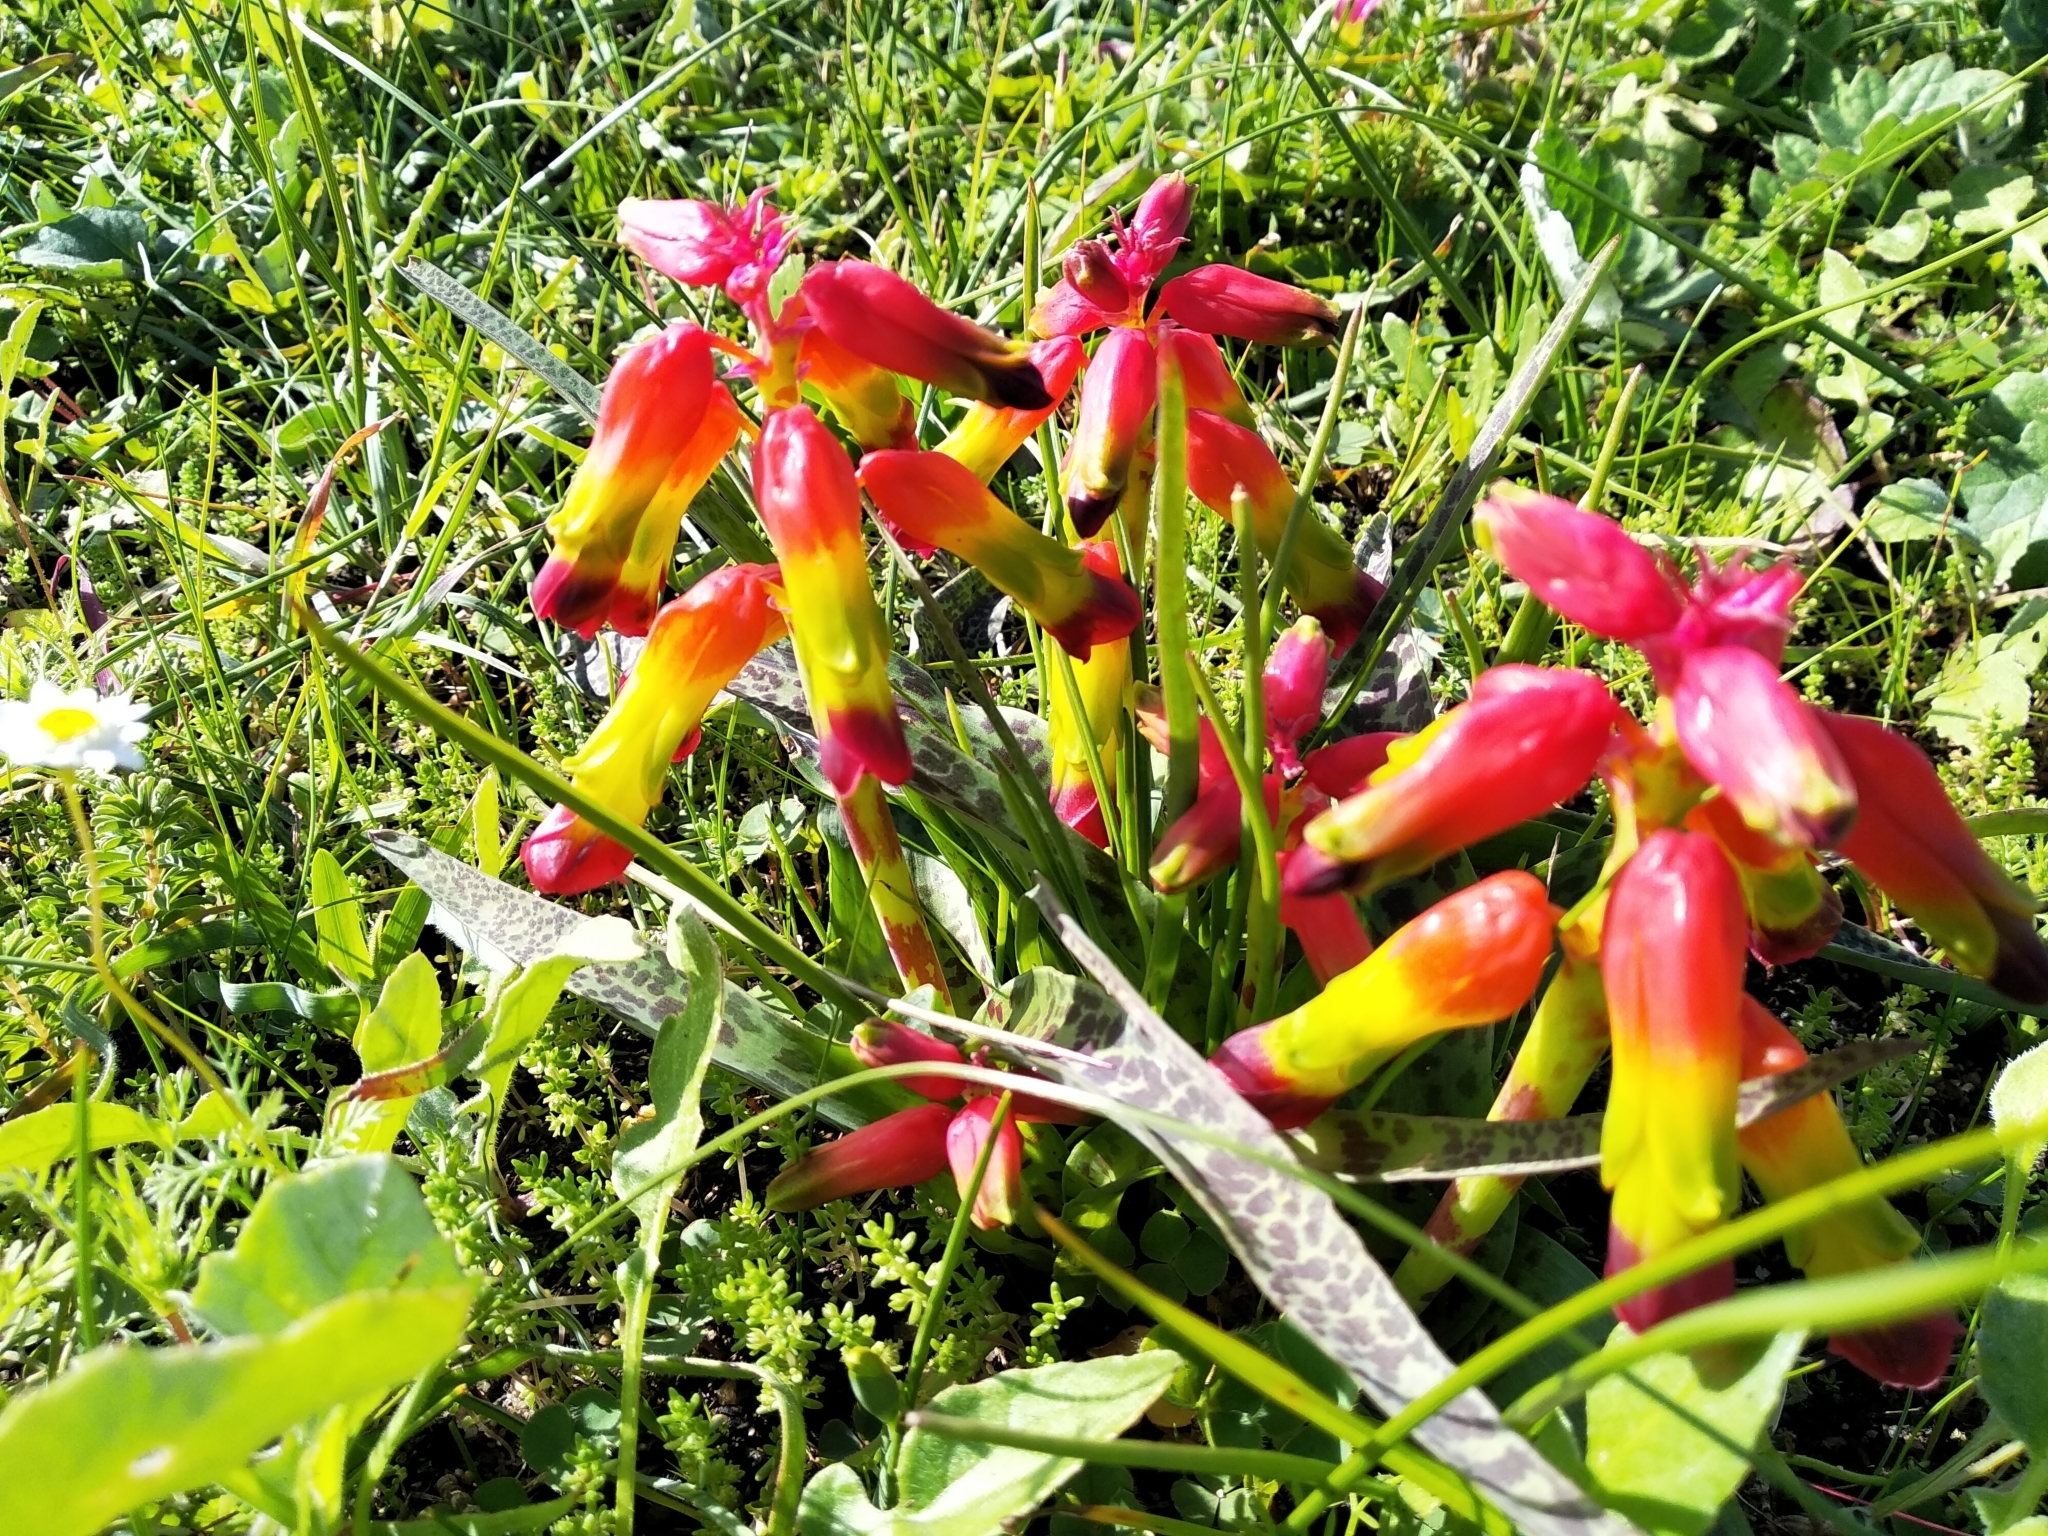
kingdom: Plantae
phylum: Tracheophyta
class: Liliopsida
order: Asparagales
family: Asparagaceae
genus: Lachenalia
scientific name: Lachenalia quadricolor
